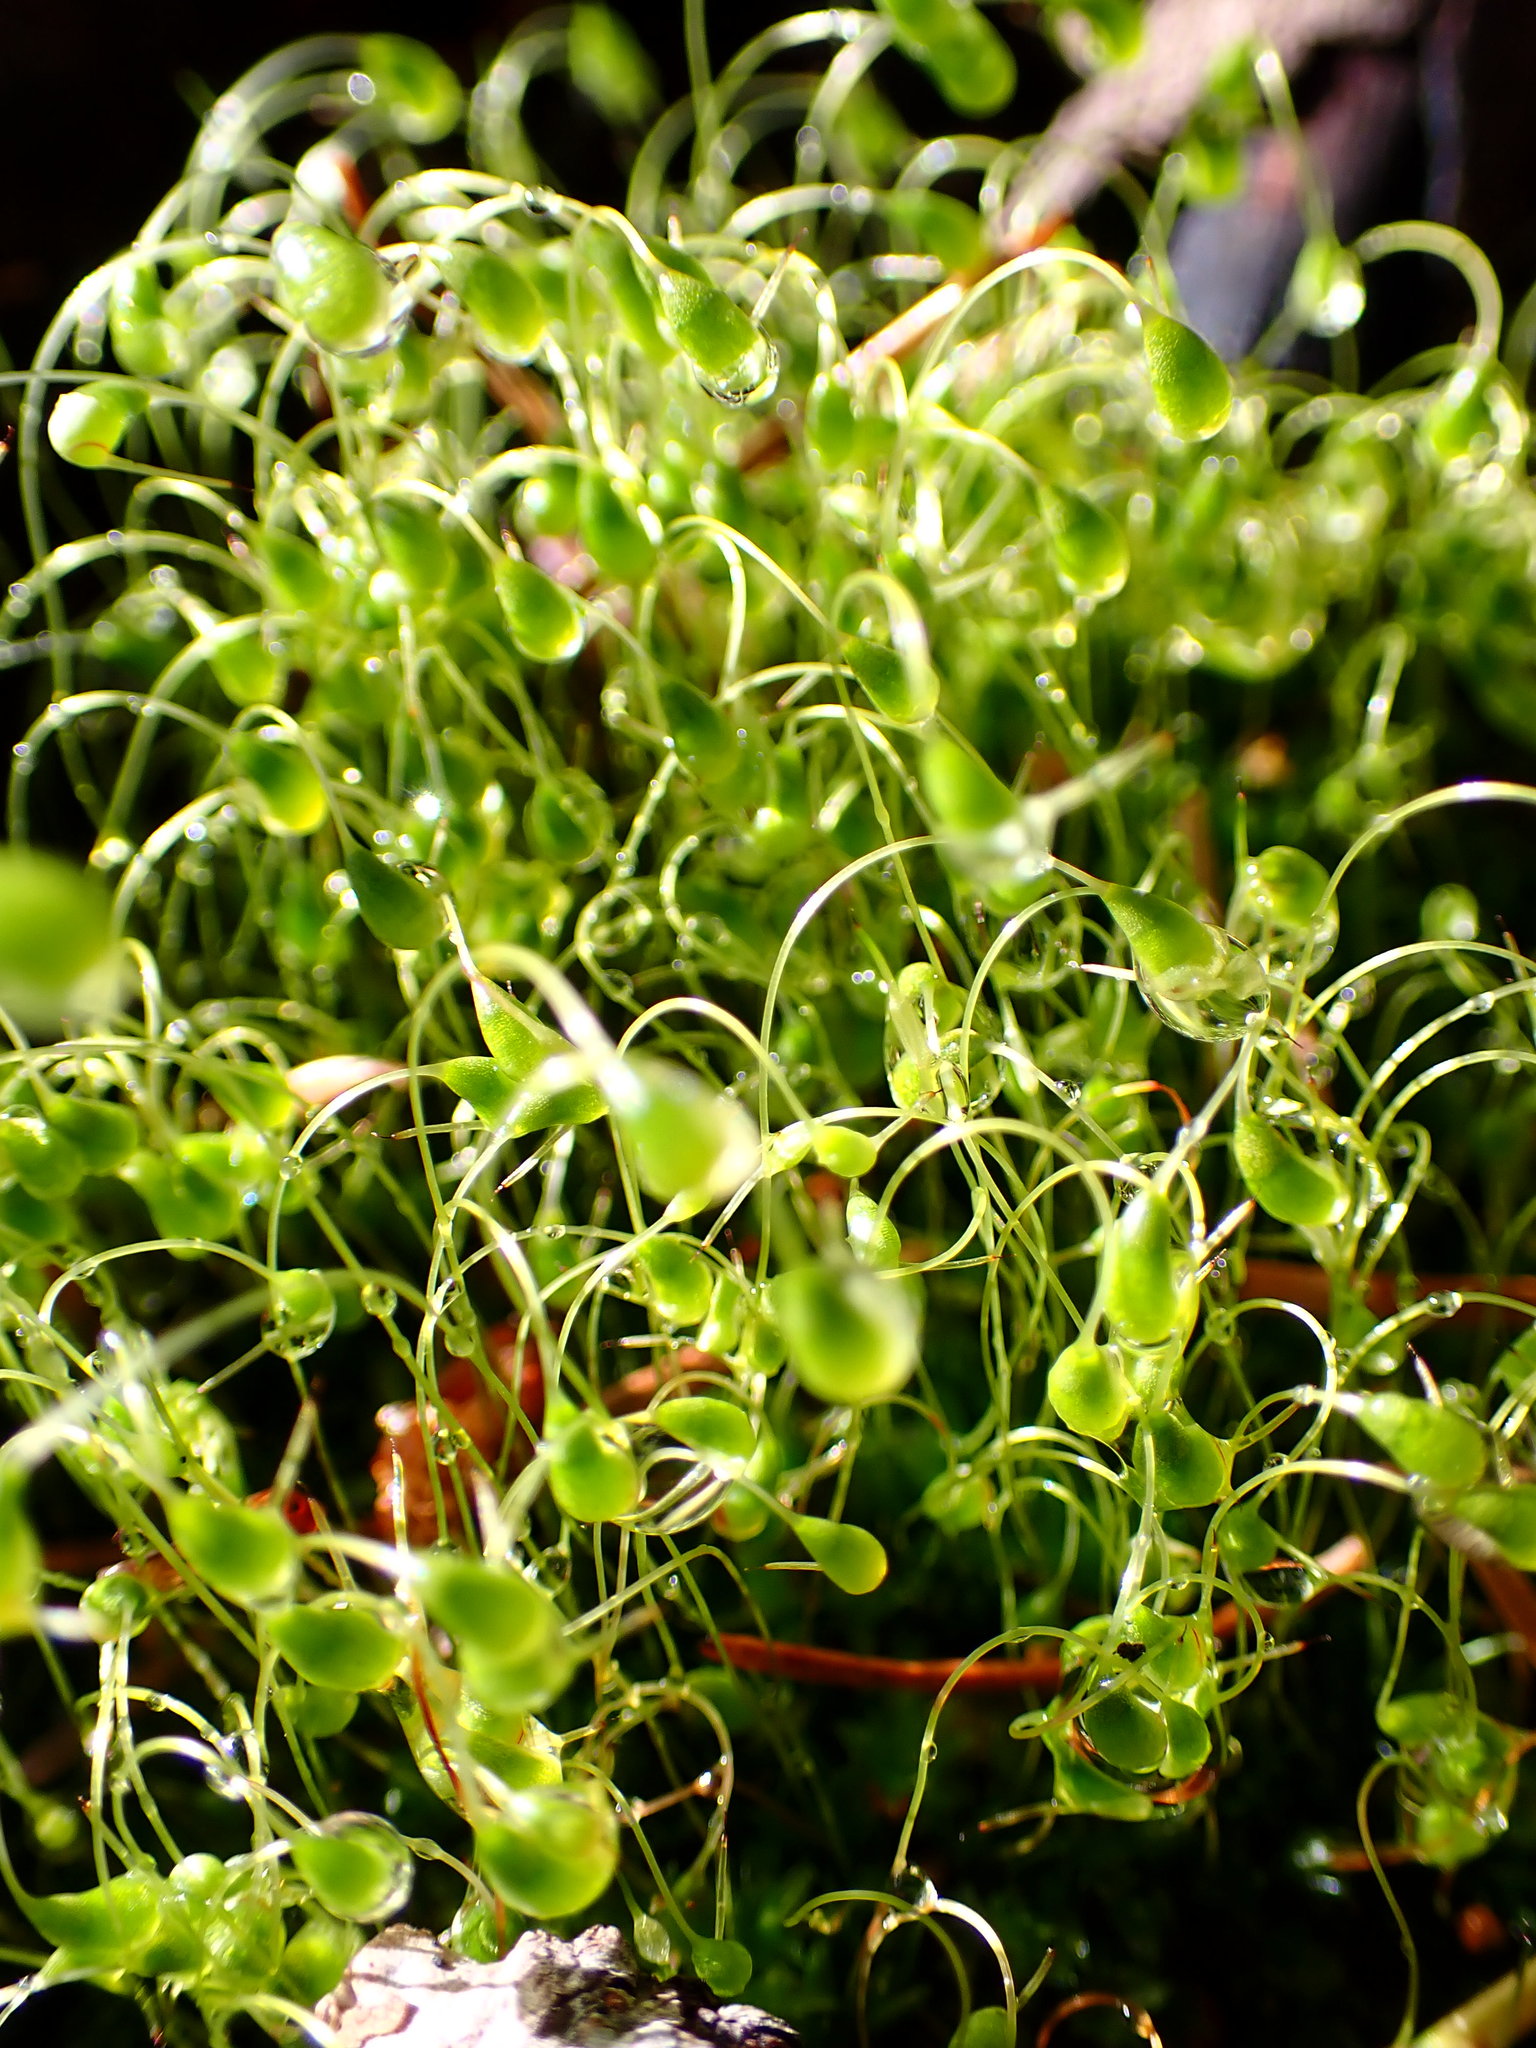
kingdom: Plantae
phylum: Bryophyta
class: Bryopsida
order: Funariales
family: Funariaceae
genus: Funaria
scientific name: Funaria hygrometrica
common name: Common cord moss
